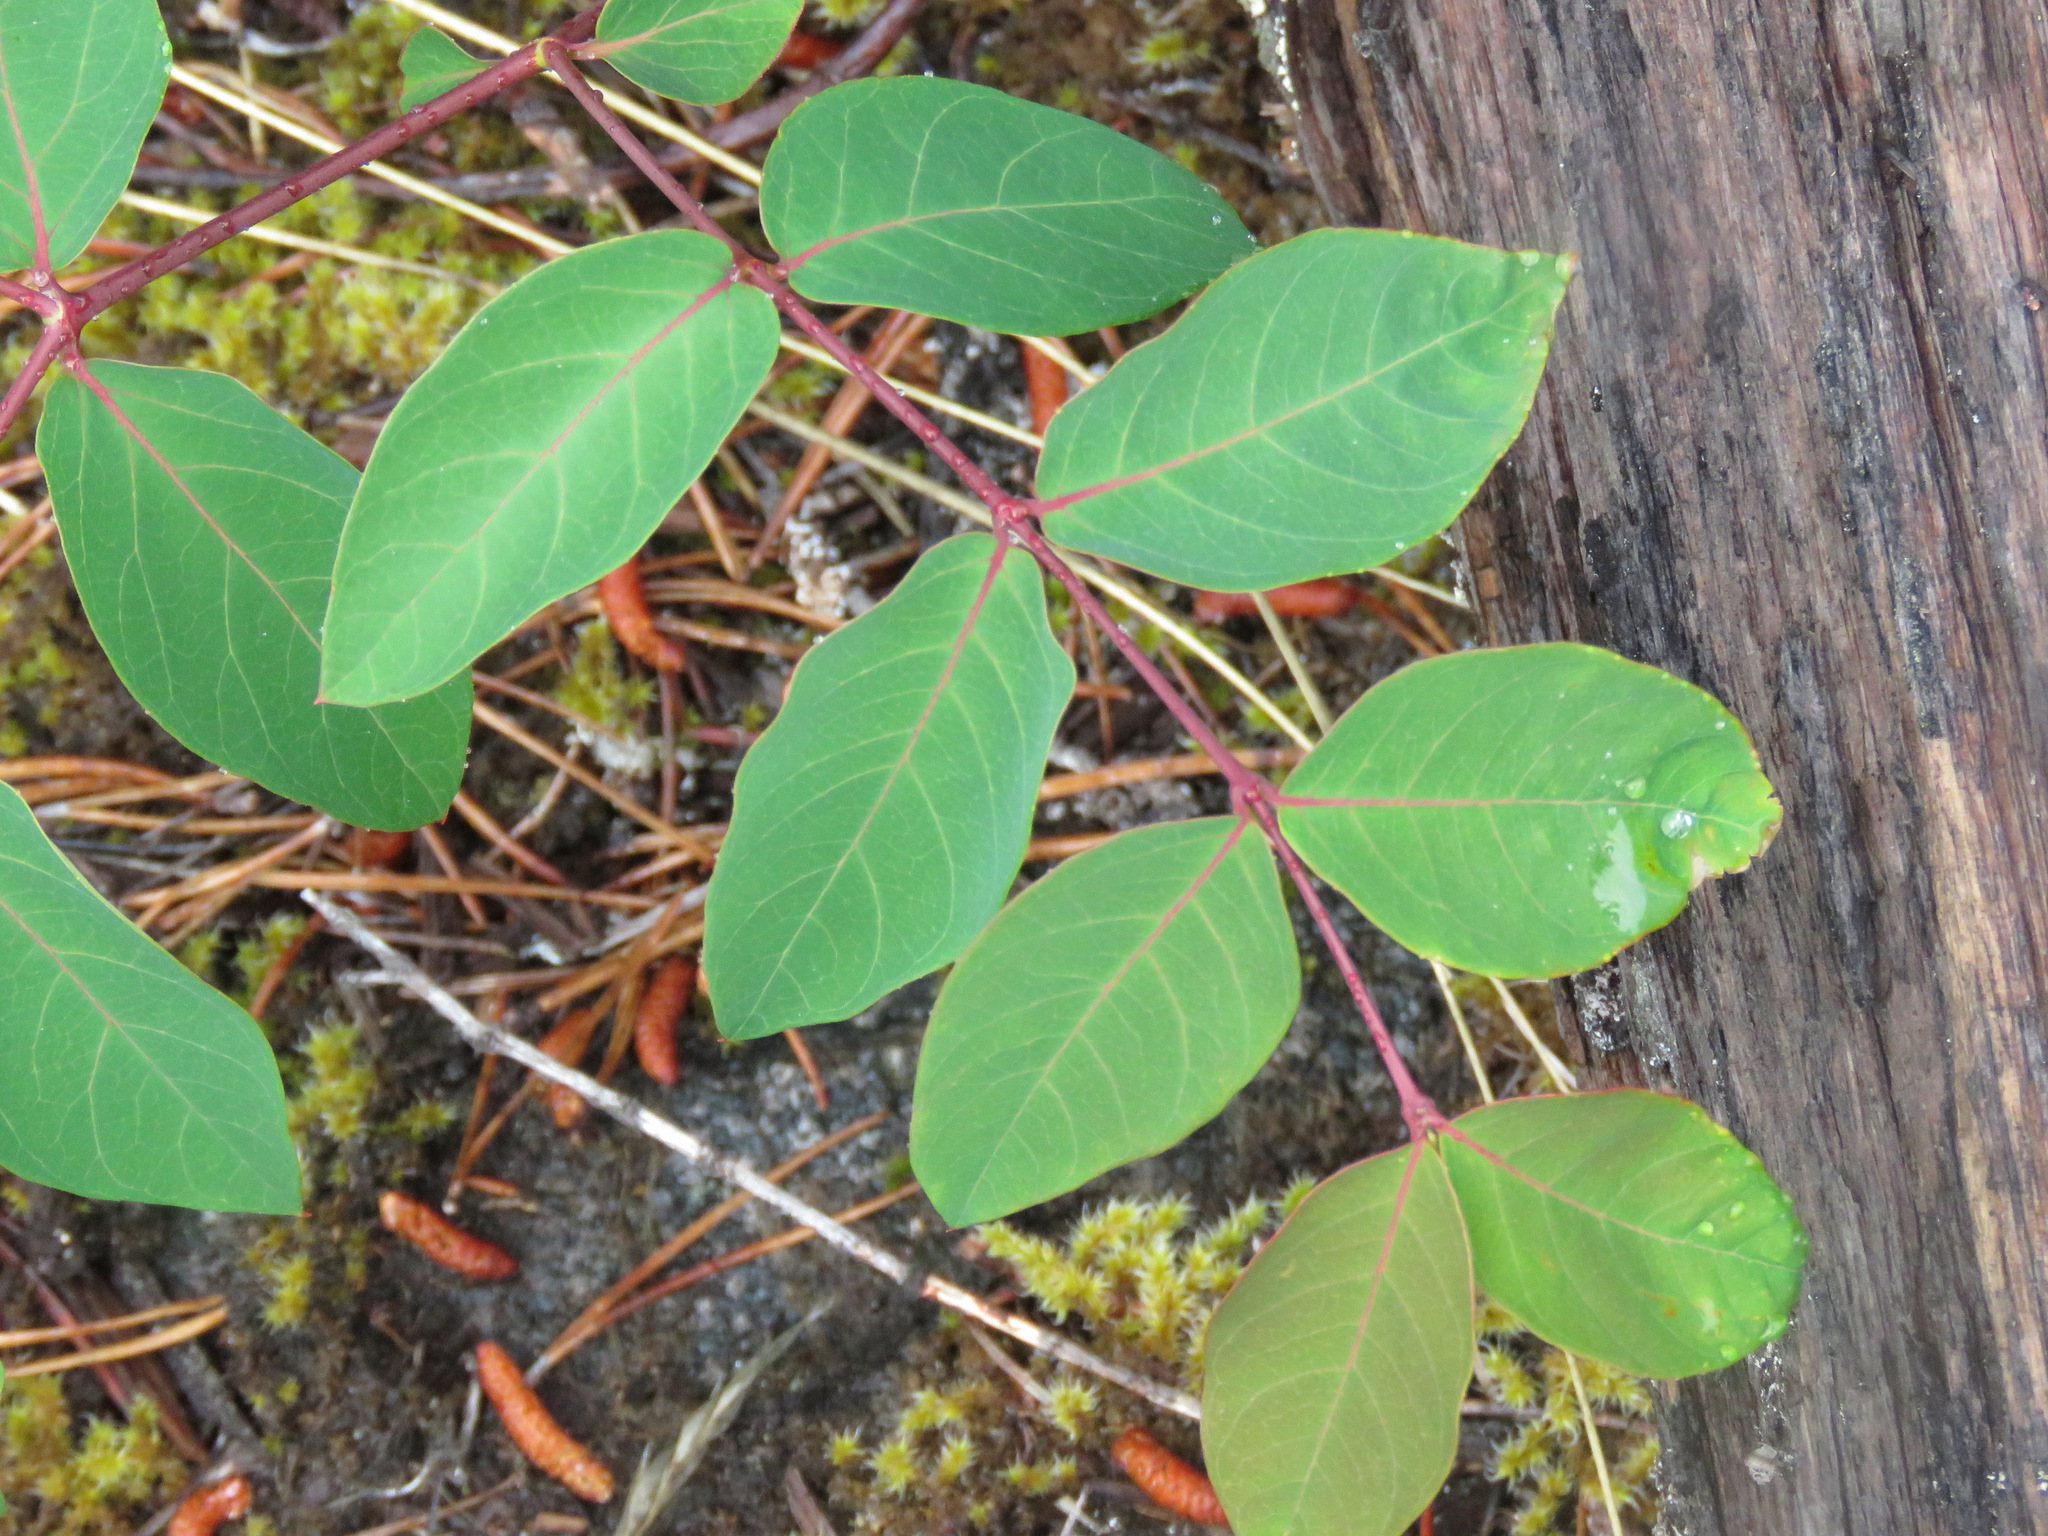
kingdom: Plantae
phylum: Tracheophyta
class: Magnoliopsida
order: Gentianales
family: Apocynaceae
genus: Apocynum
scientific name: Apocynum androsaemifolium
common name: Spreading dogbane
